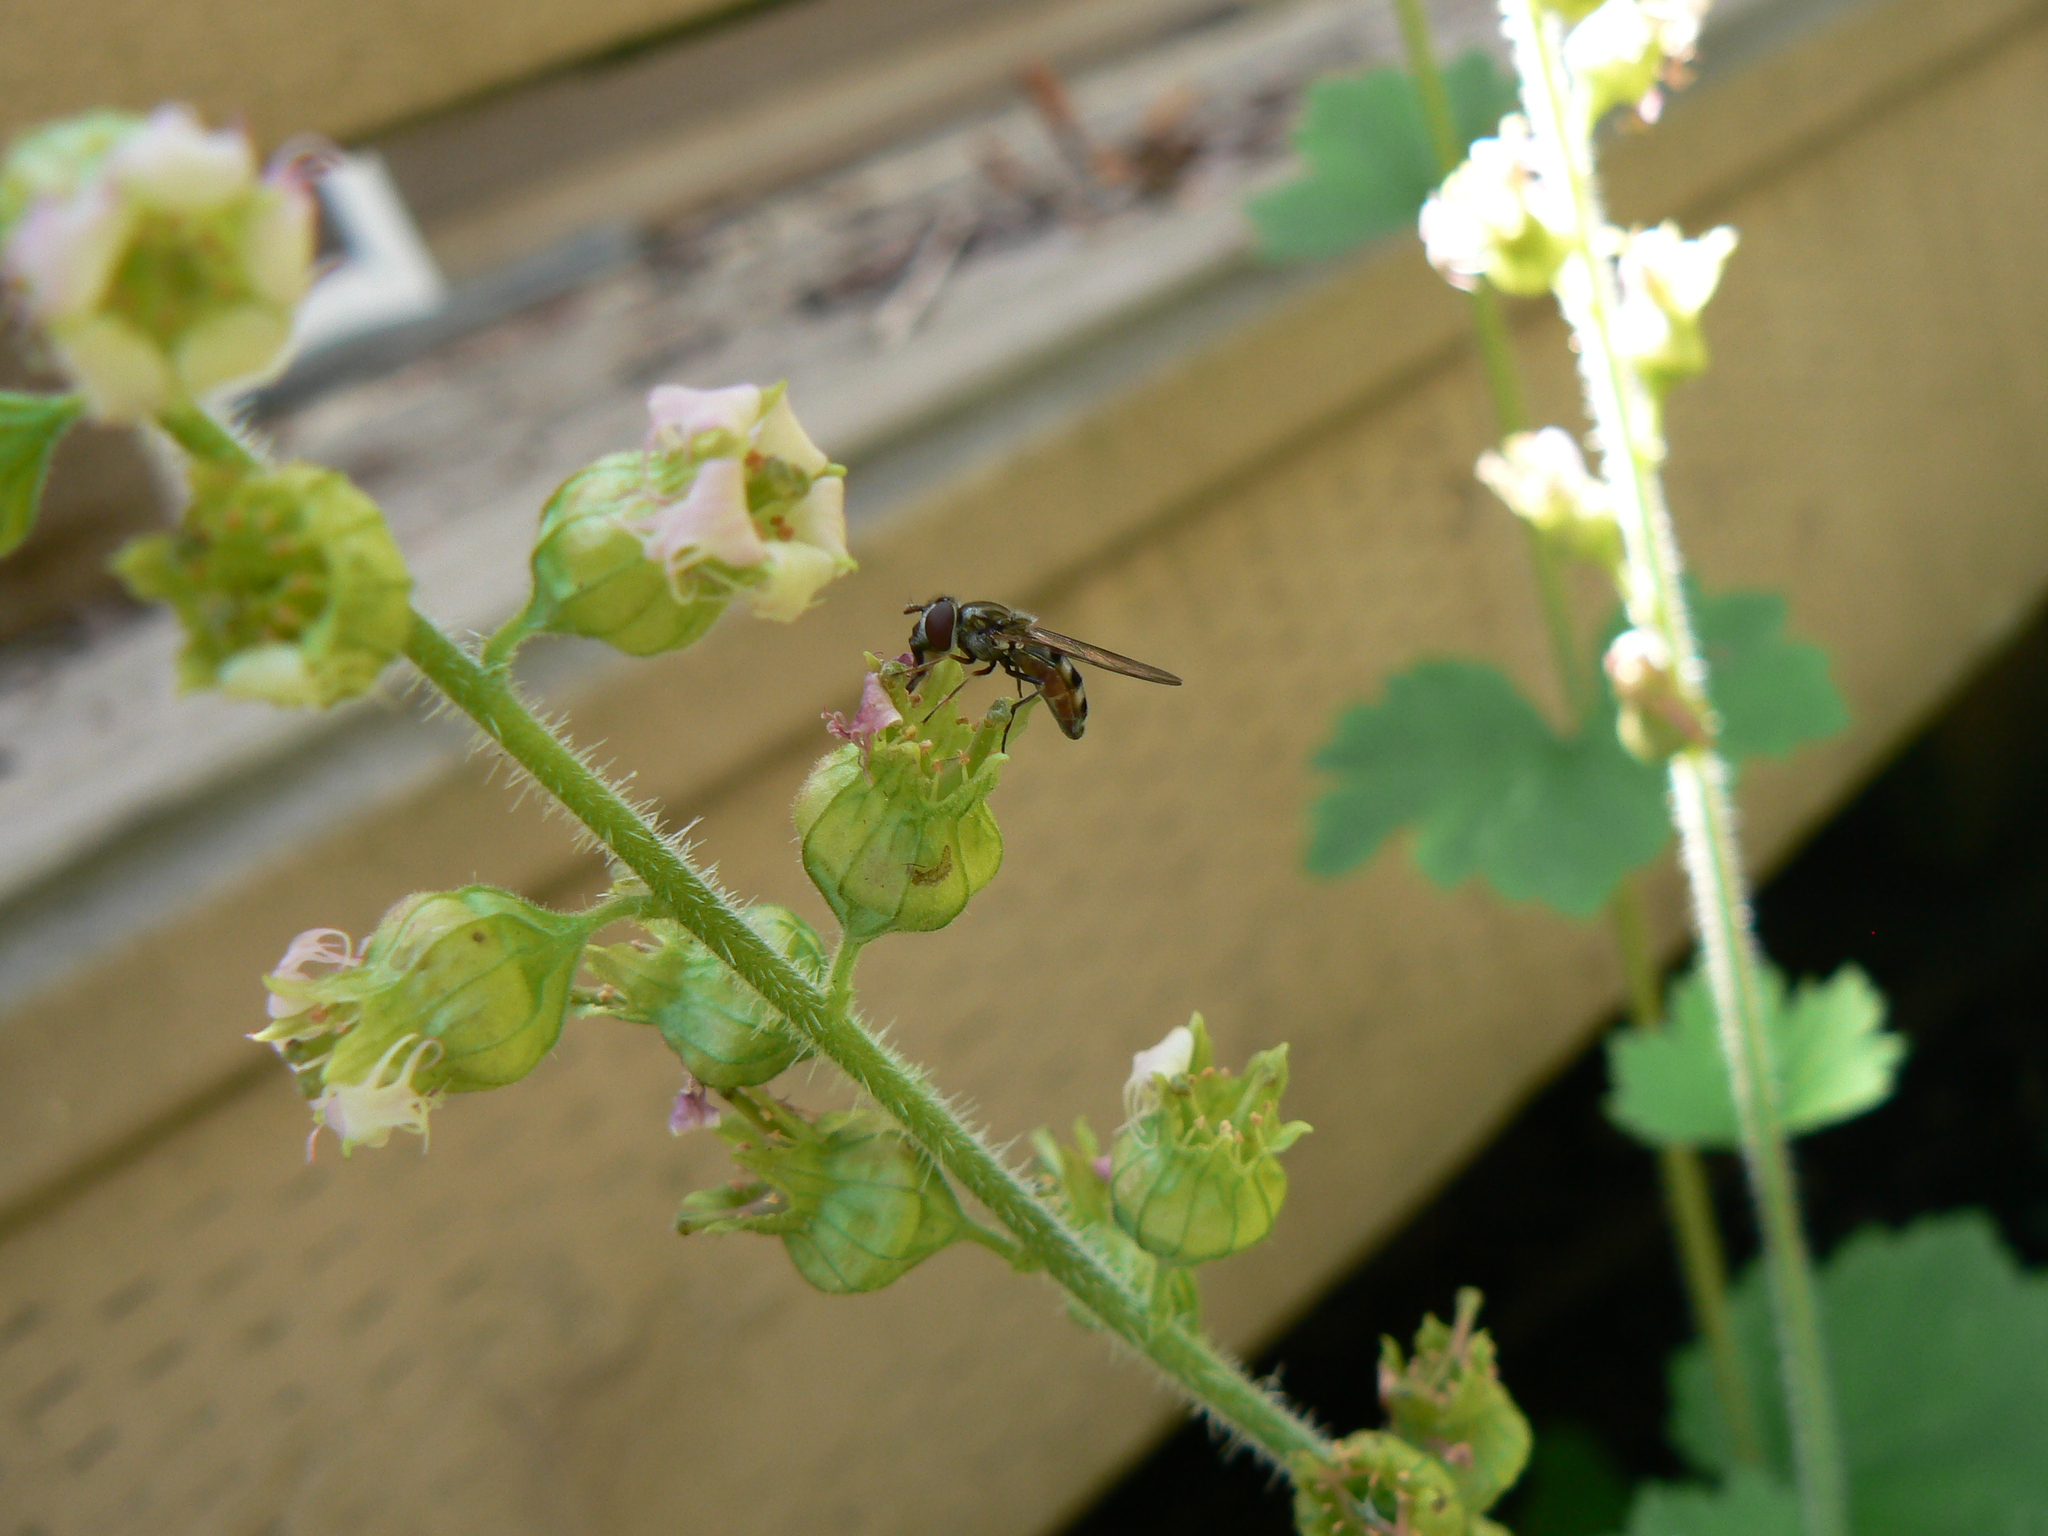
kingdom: Animalia
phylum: Arthropoda
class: Insecta
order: Diptera
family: Syrphidae
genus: Platycheirus
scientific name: Platycheirus trichopus
